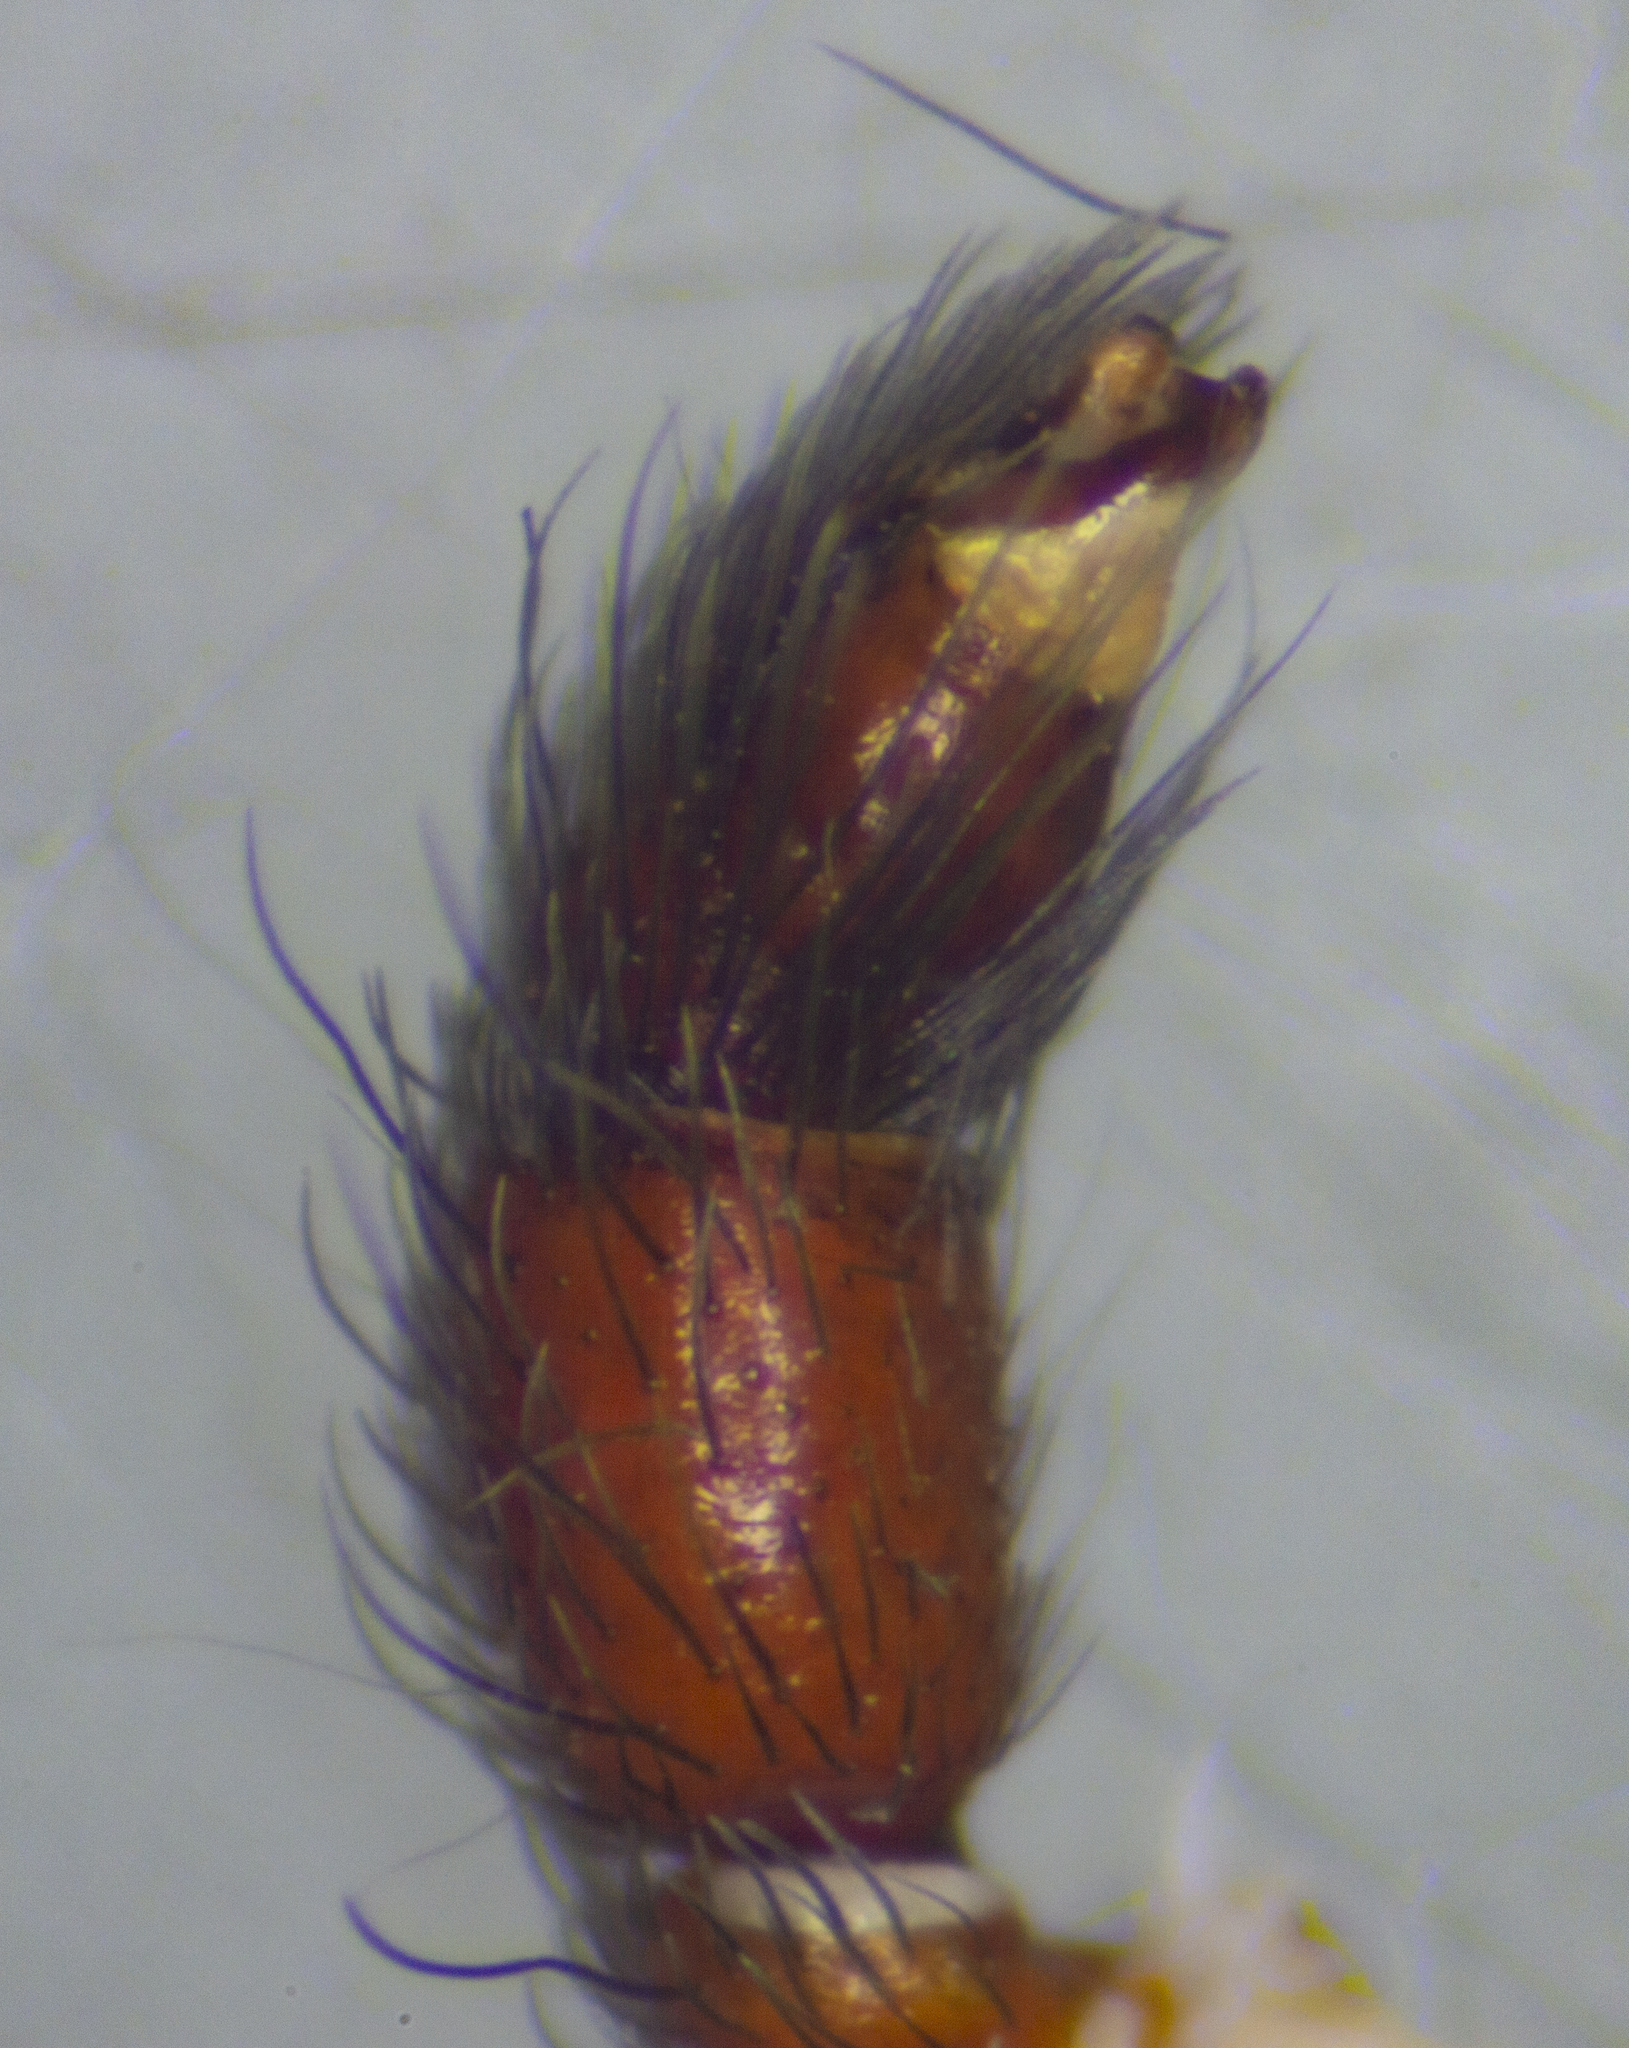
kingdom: Animalia
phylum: Arthropoda
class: Arachnida
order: Araneae
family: Palpimanidae
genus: Palpimanus
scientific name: Palpimanus gibbulus
